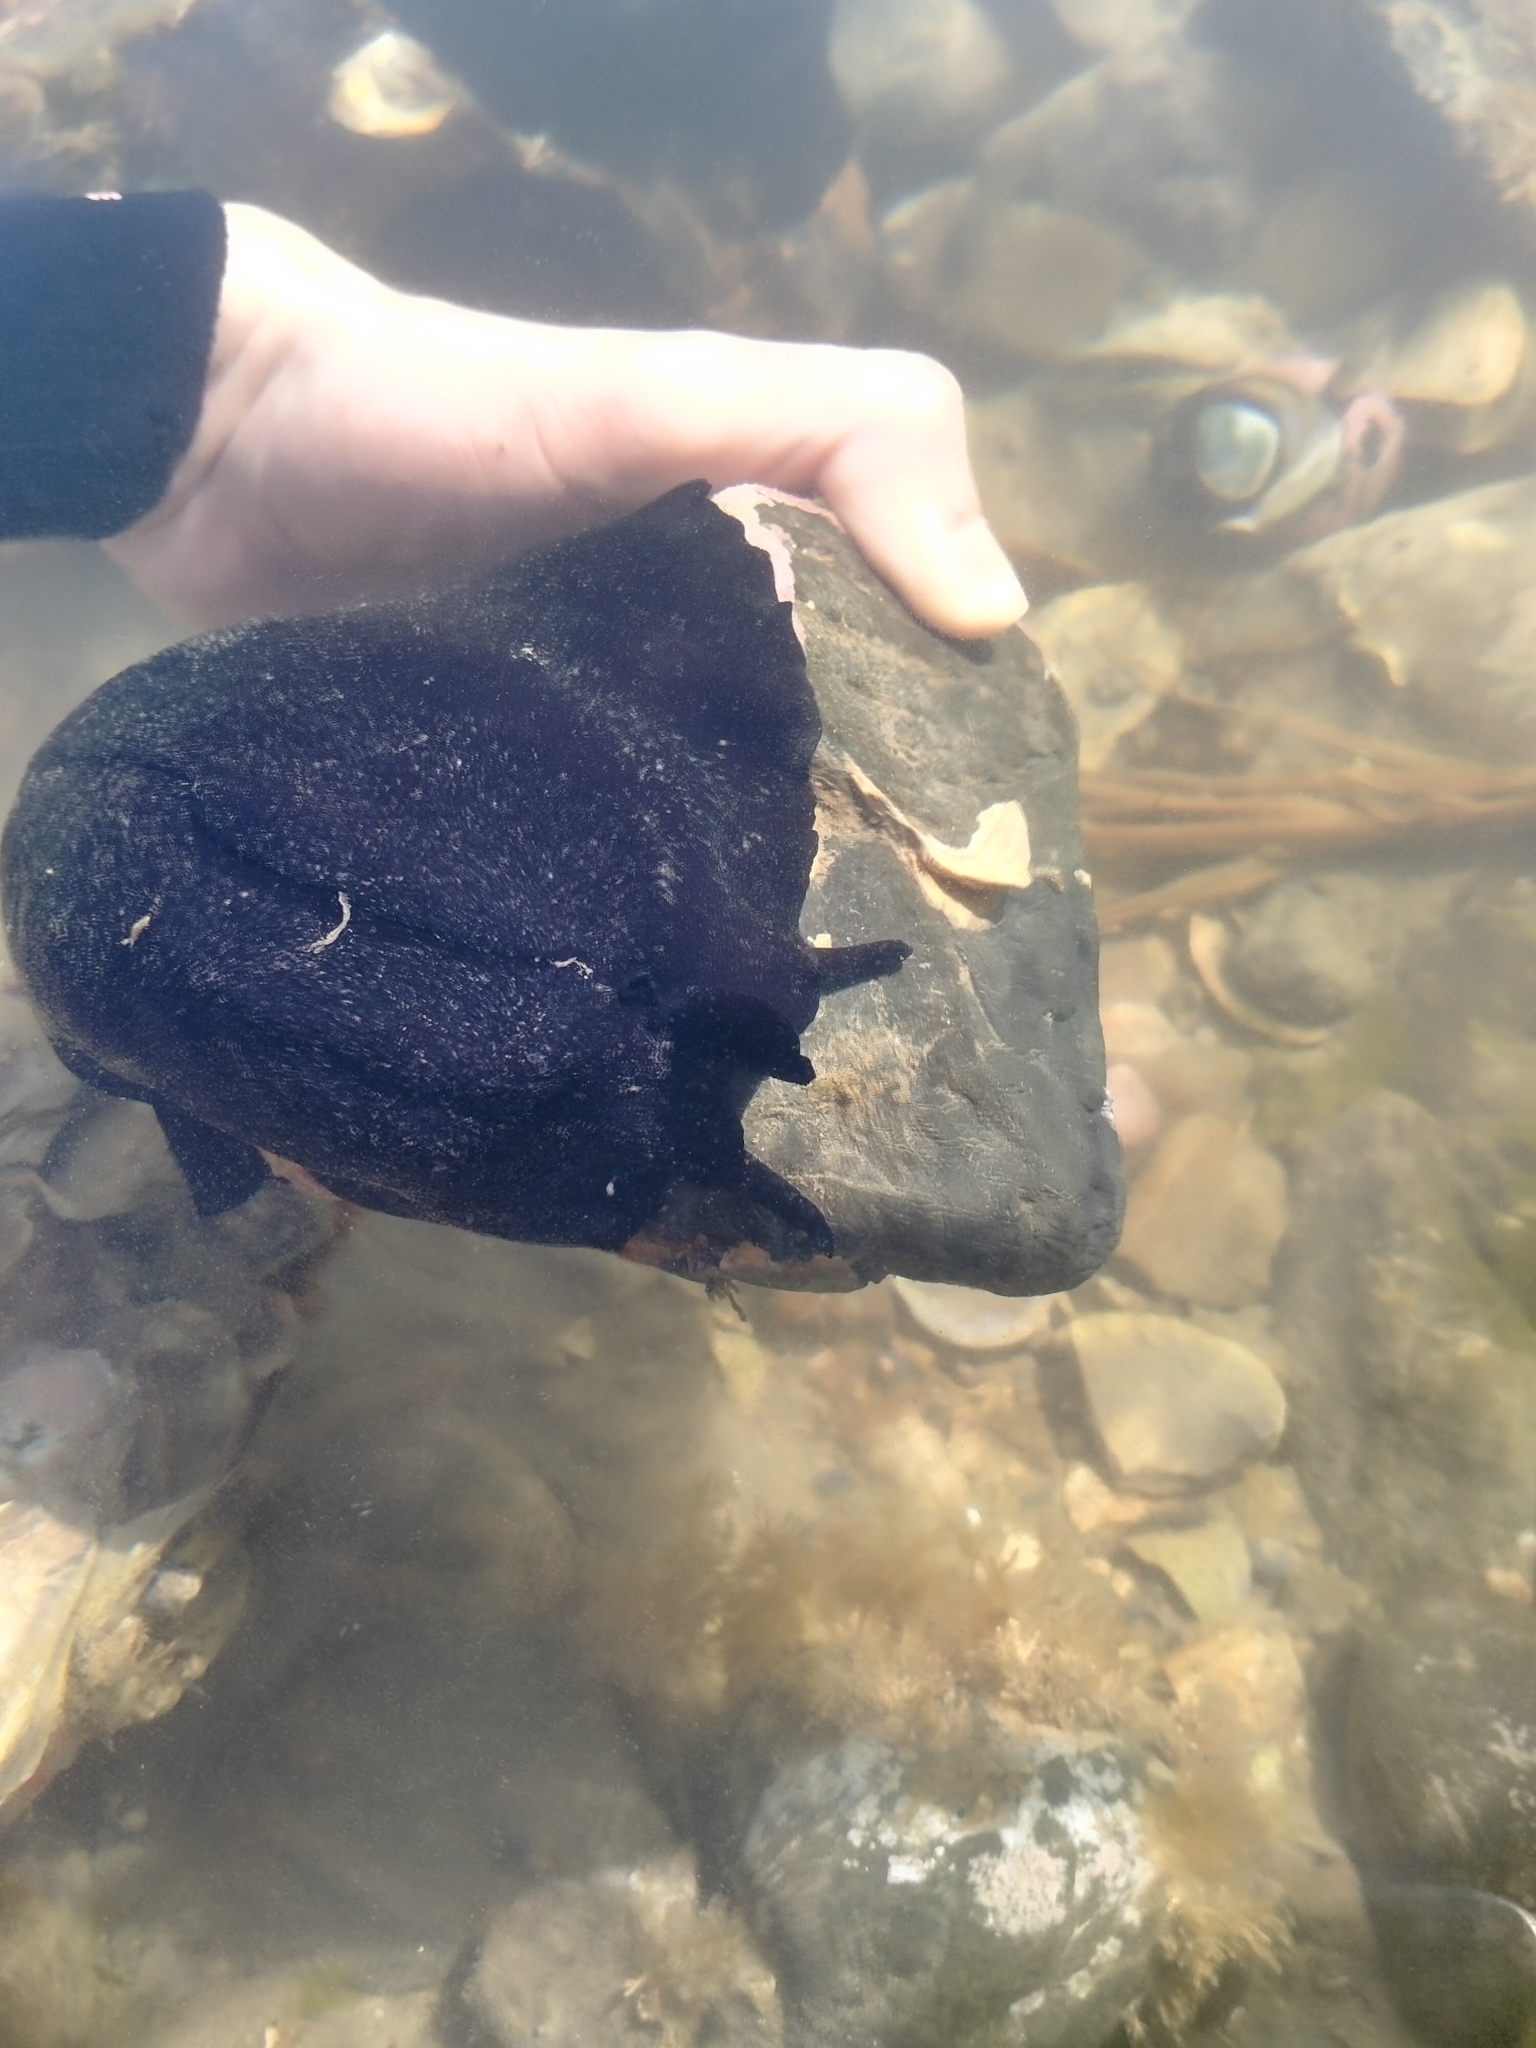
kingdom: Animalia
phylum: Mollusca
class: Gastropoda
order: Lepetellida
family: Fissurellidae
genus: Scutus
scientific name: Scutus breviculus
